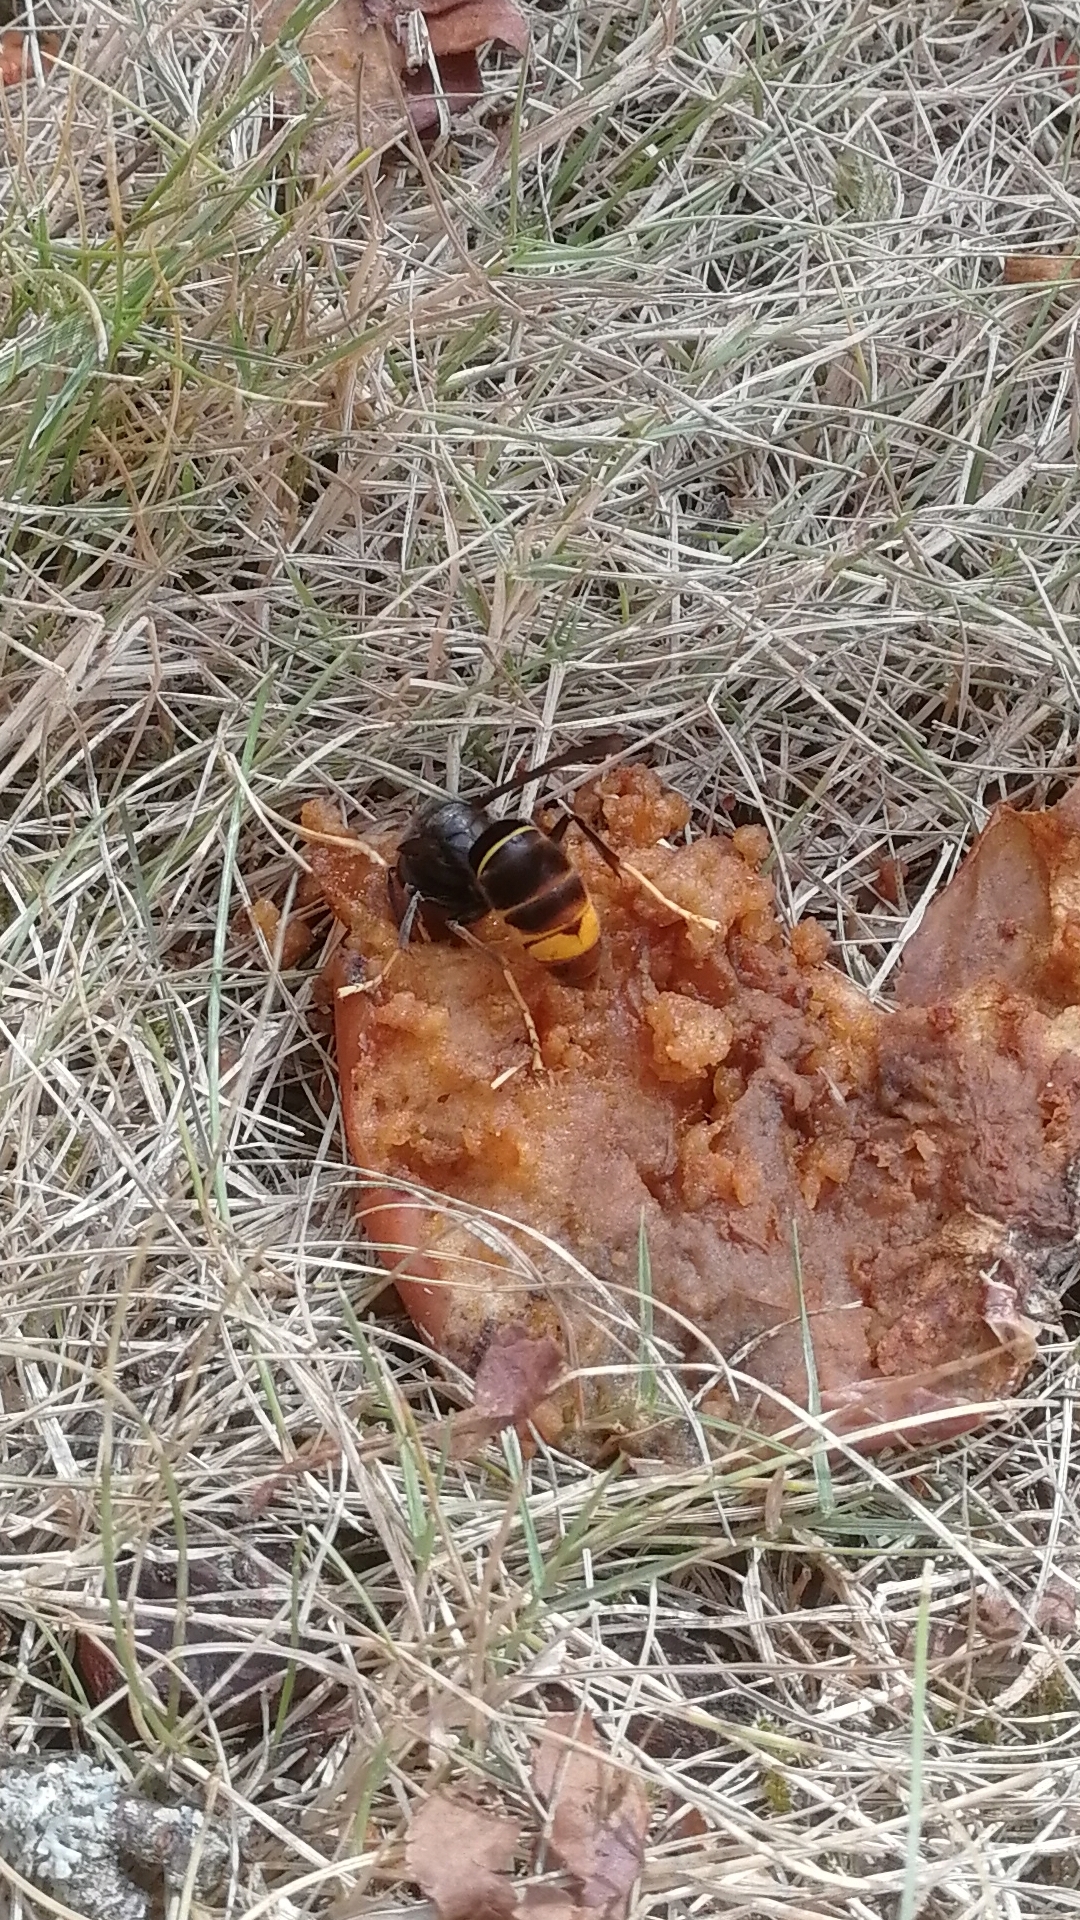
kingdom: Animalia
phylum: Arthropoda
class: Insecta
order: Hymenoptera
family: Vespidae
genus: Vespa
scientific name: Vespa velutina
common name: Asian hornet
